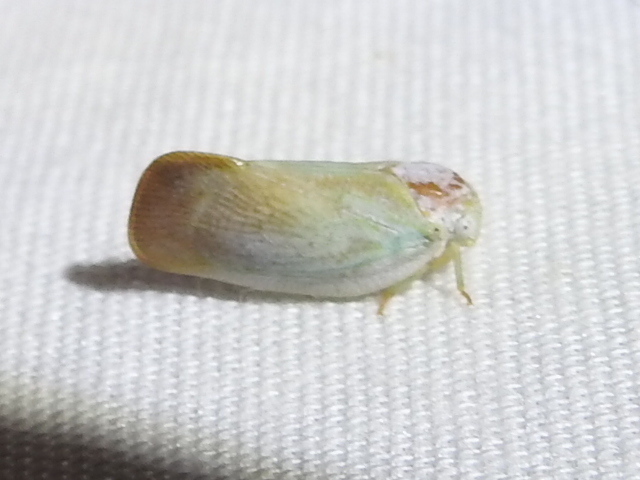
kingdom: Animalia
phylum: Arthropoda
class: Insecta
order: Hemiptera
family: Flatidae
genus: Flatormenis
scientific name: Flatormenis saucia
